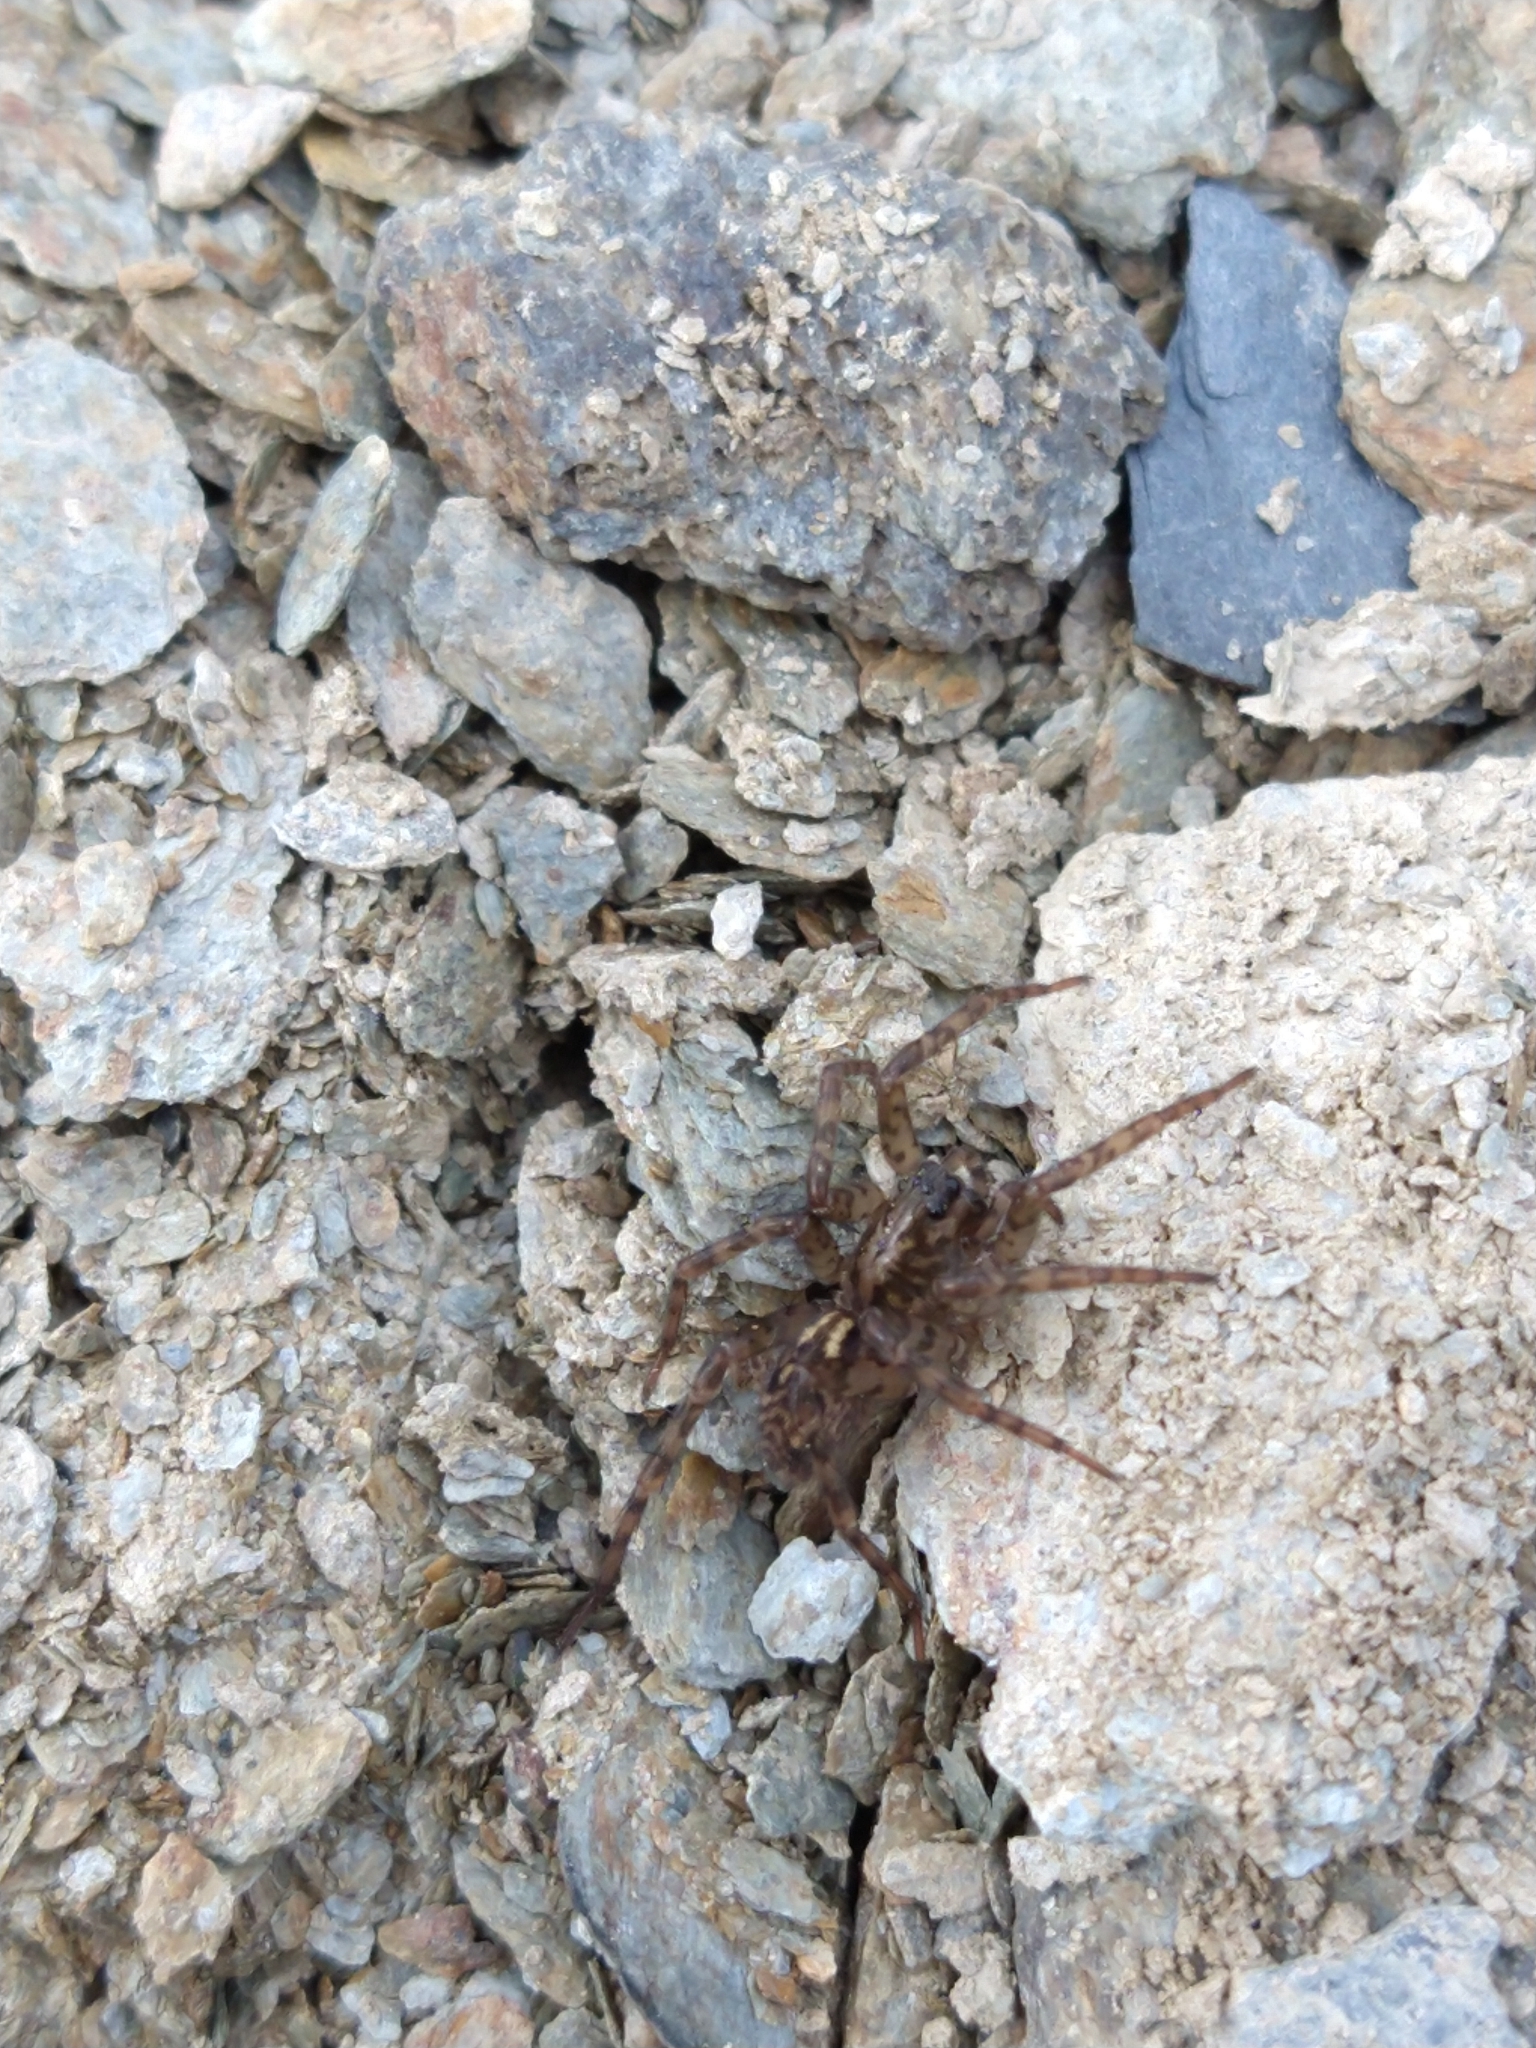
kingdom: Animalia
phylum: Arthropoda
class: Arachnida
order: Araneae
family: Amaurobiidae
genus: Emmenomma
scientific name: Emmenomma oculatum
